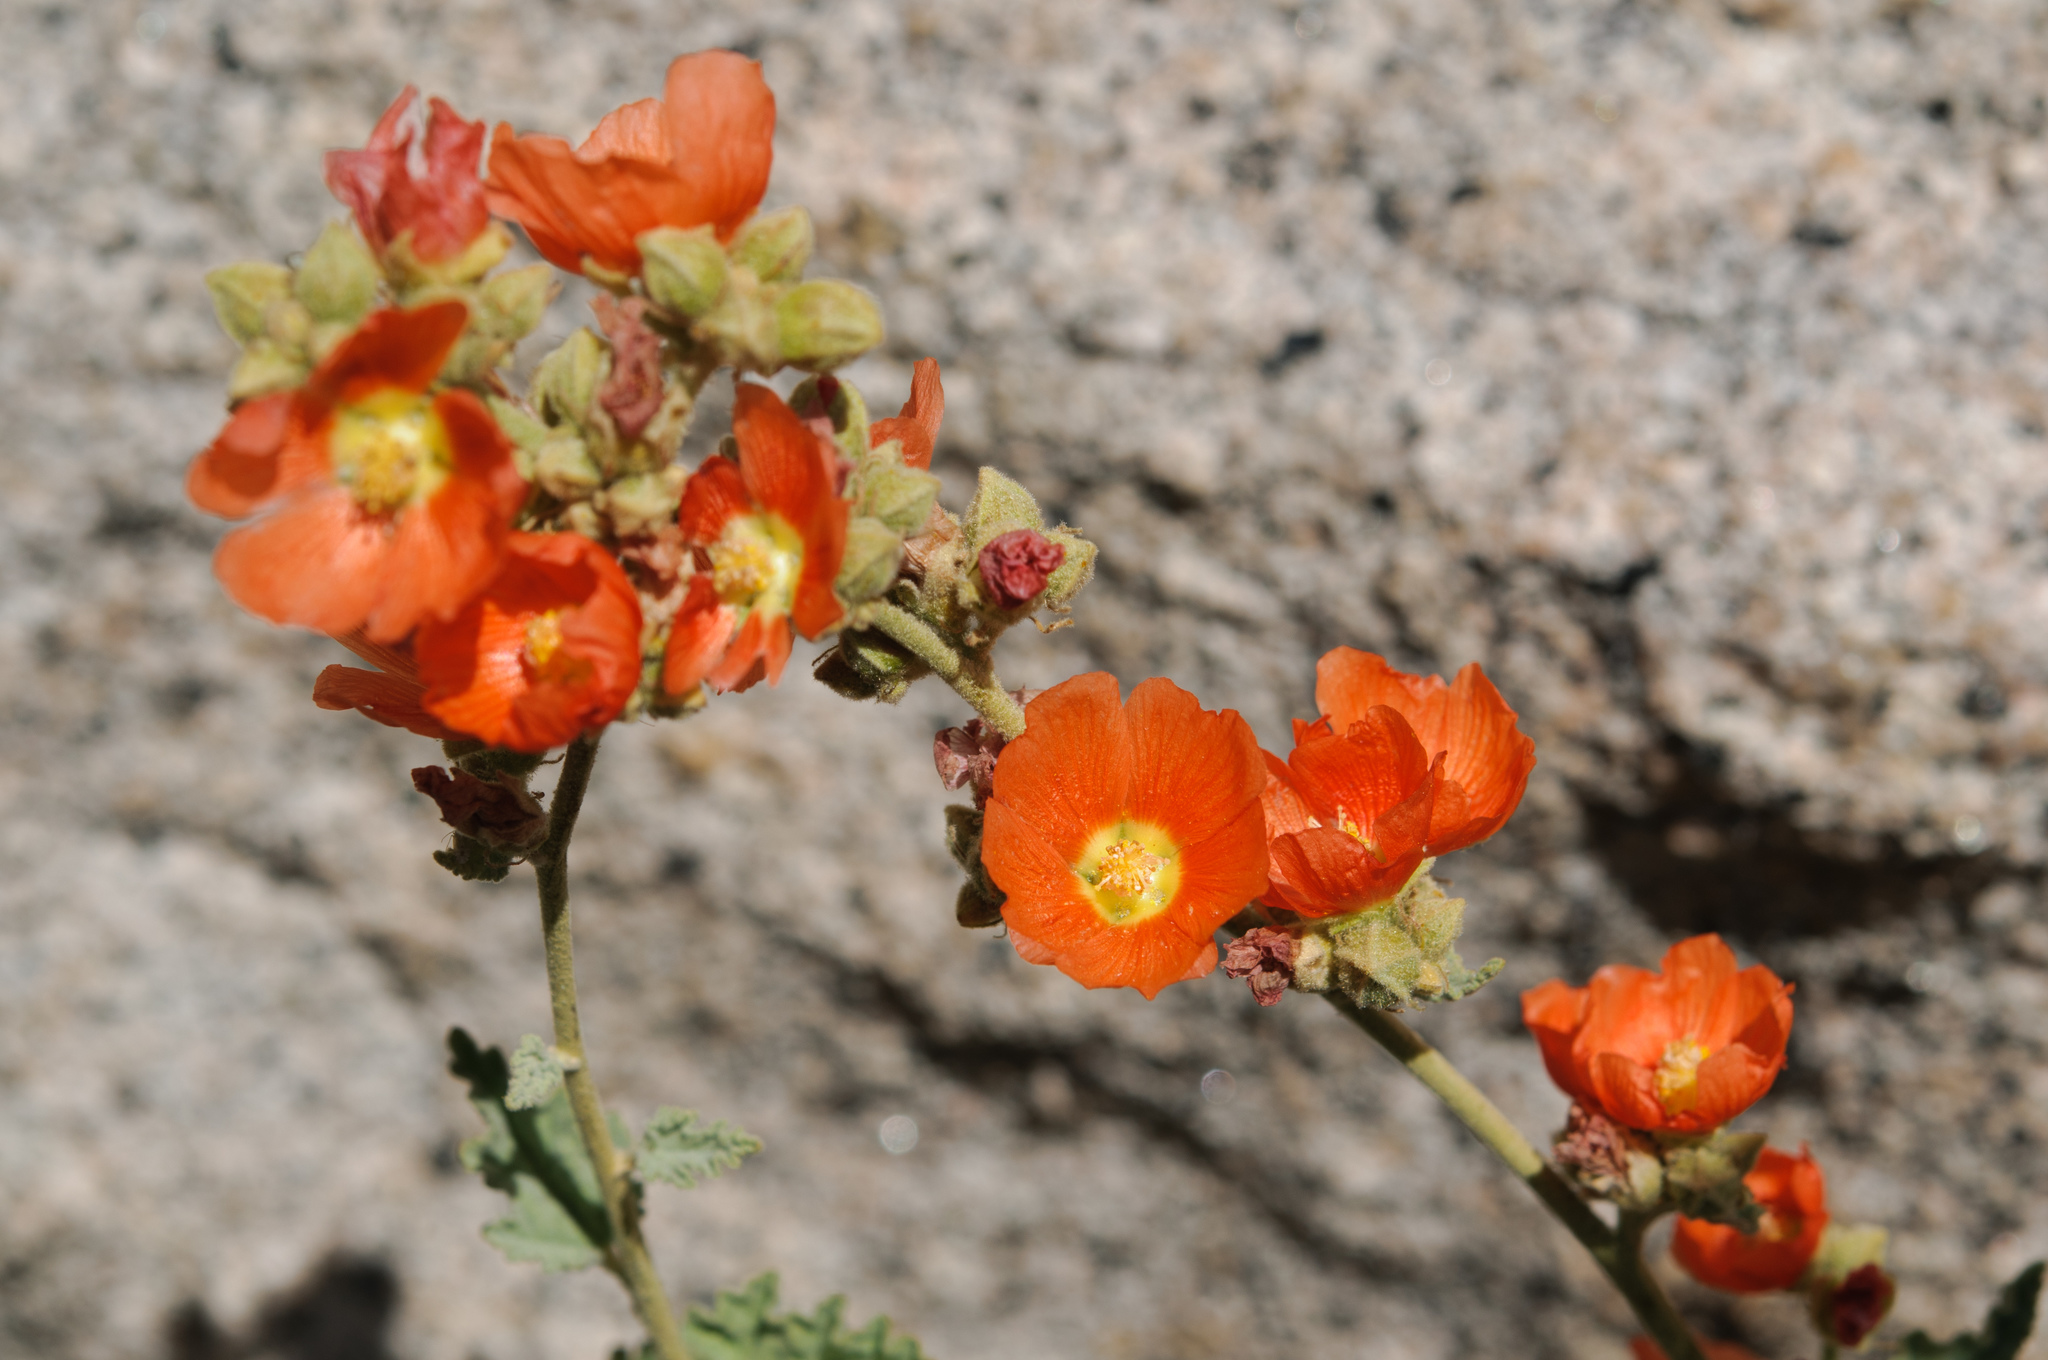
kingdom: Plantae
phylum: Tracheophyta
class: Magnoliopsida
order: Malvales
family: Malvaceae
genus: Sphaeralcea
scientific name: Sphaeralcea ambigua
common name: Apricot globe-mallow
